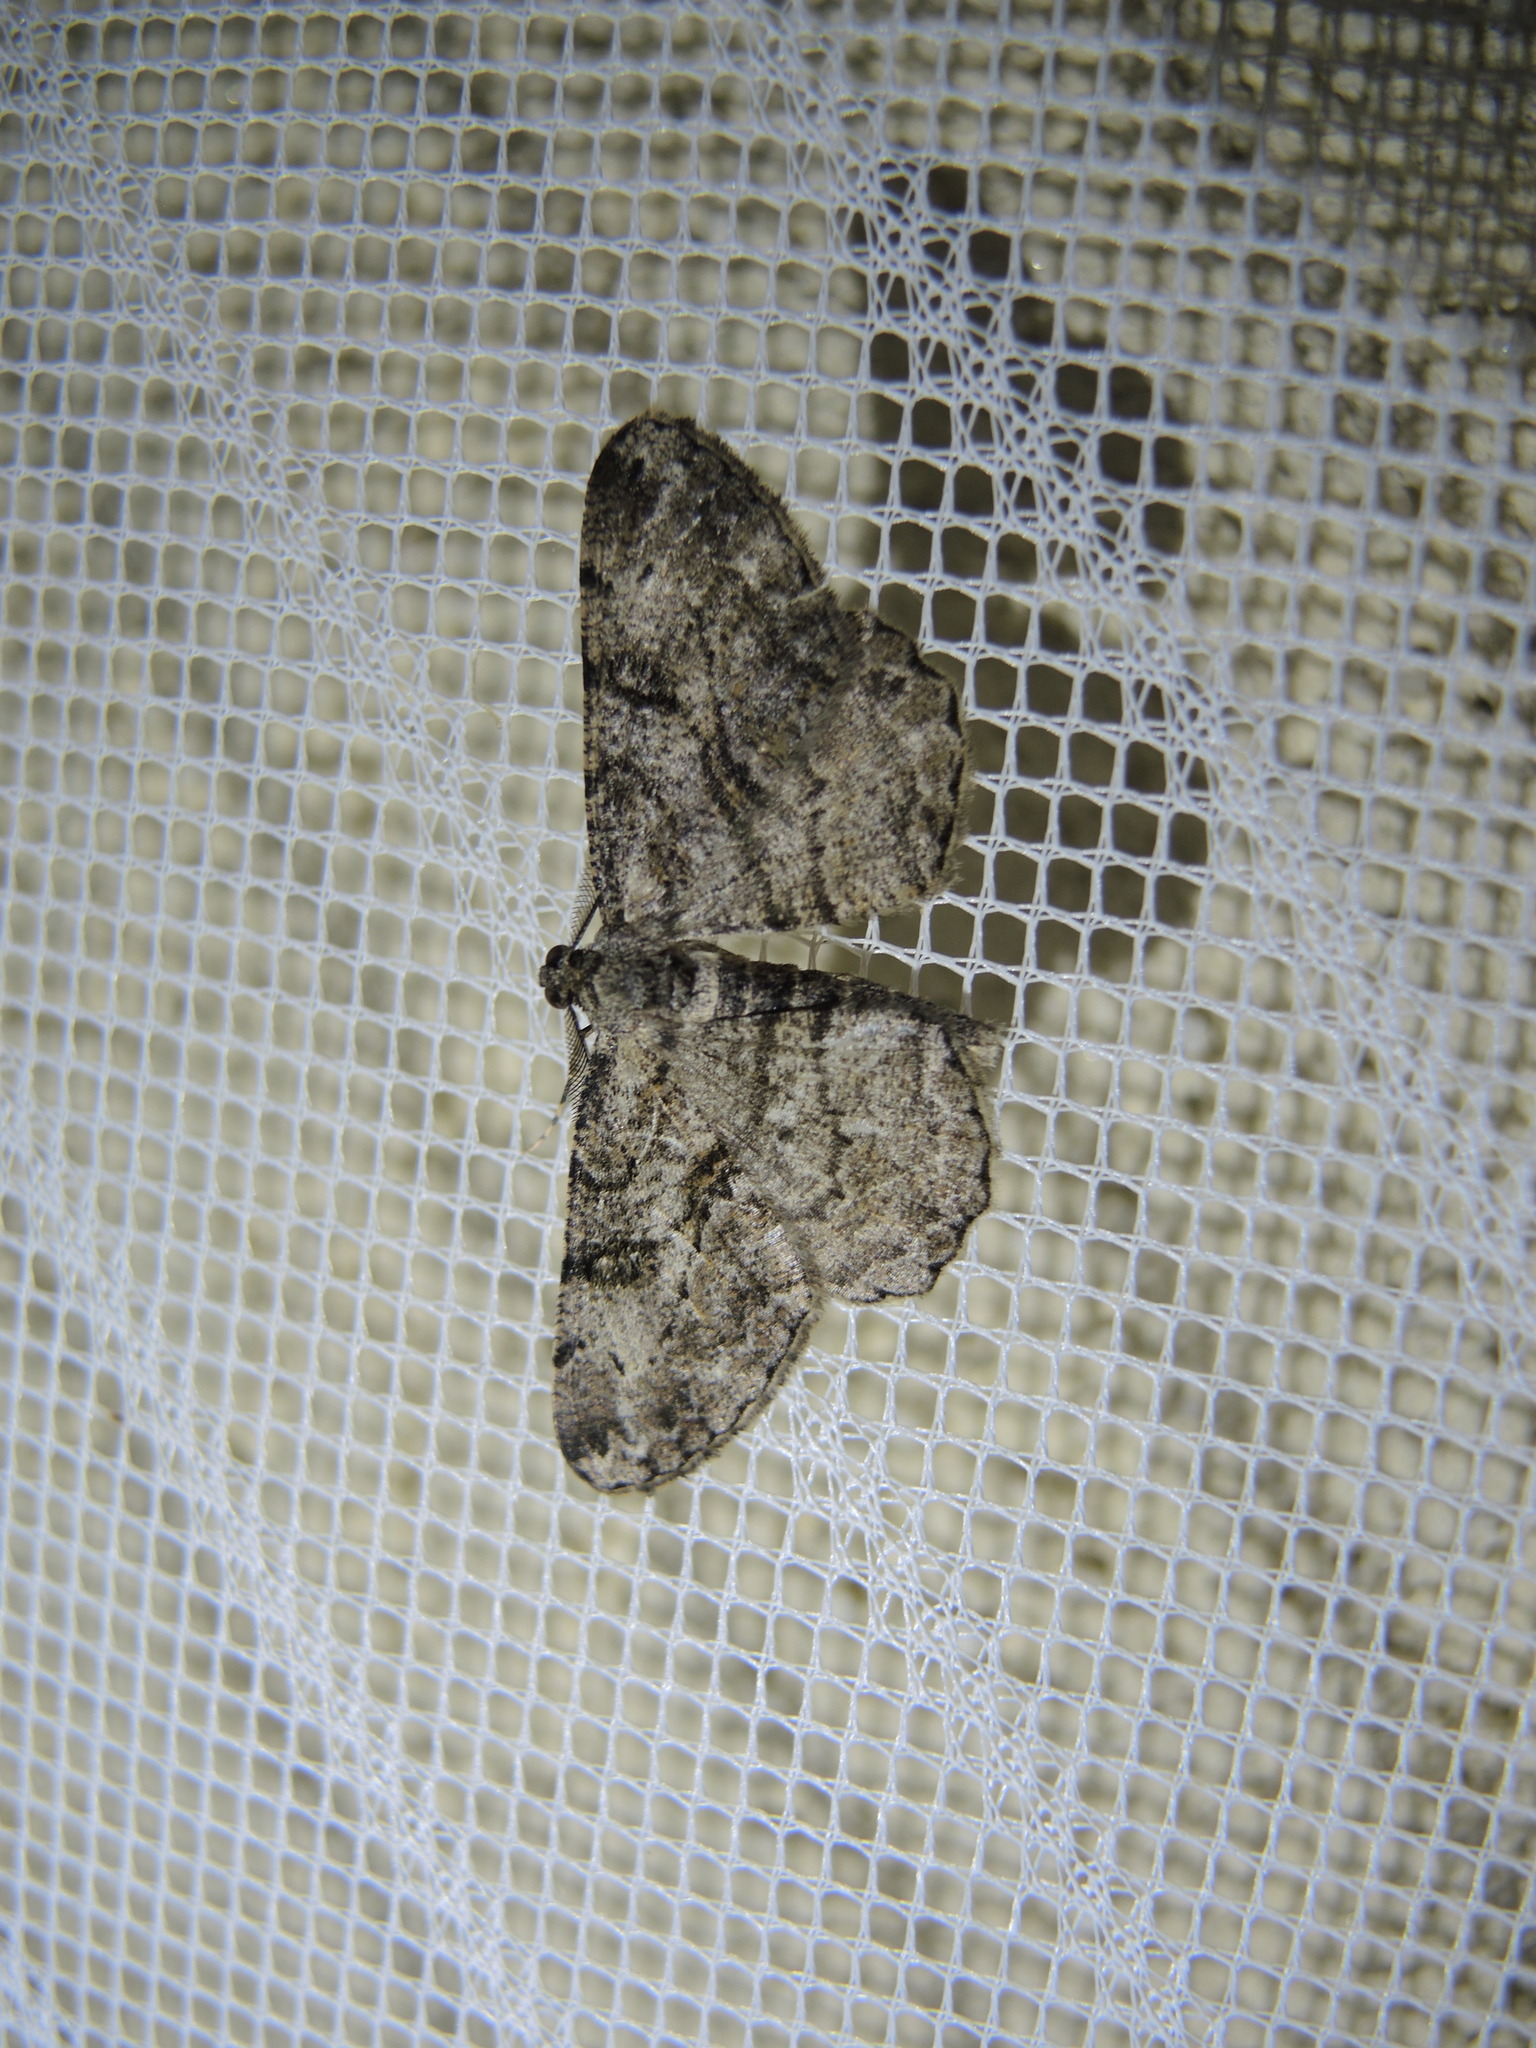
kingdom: Animalia
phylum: Arthropoda
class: Insecta
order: Lepidoptera
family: Geometridae
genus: Peribatodes
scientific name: Peribatodes rhomboidaria
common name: Willow beauty
